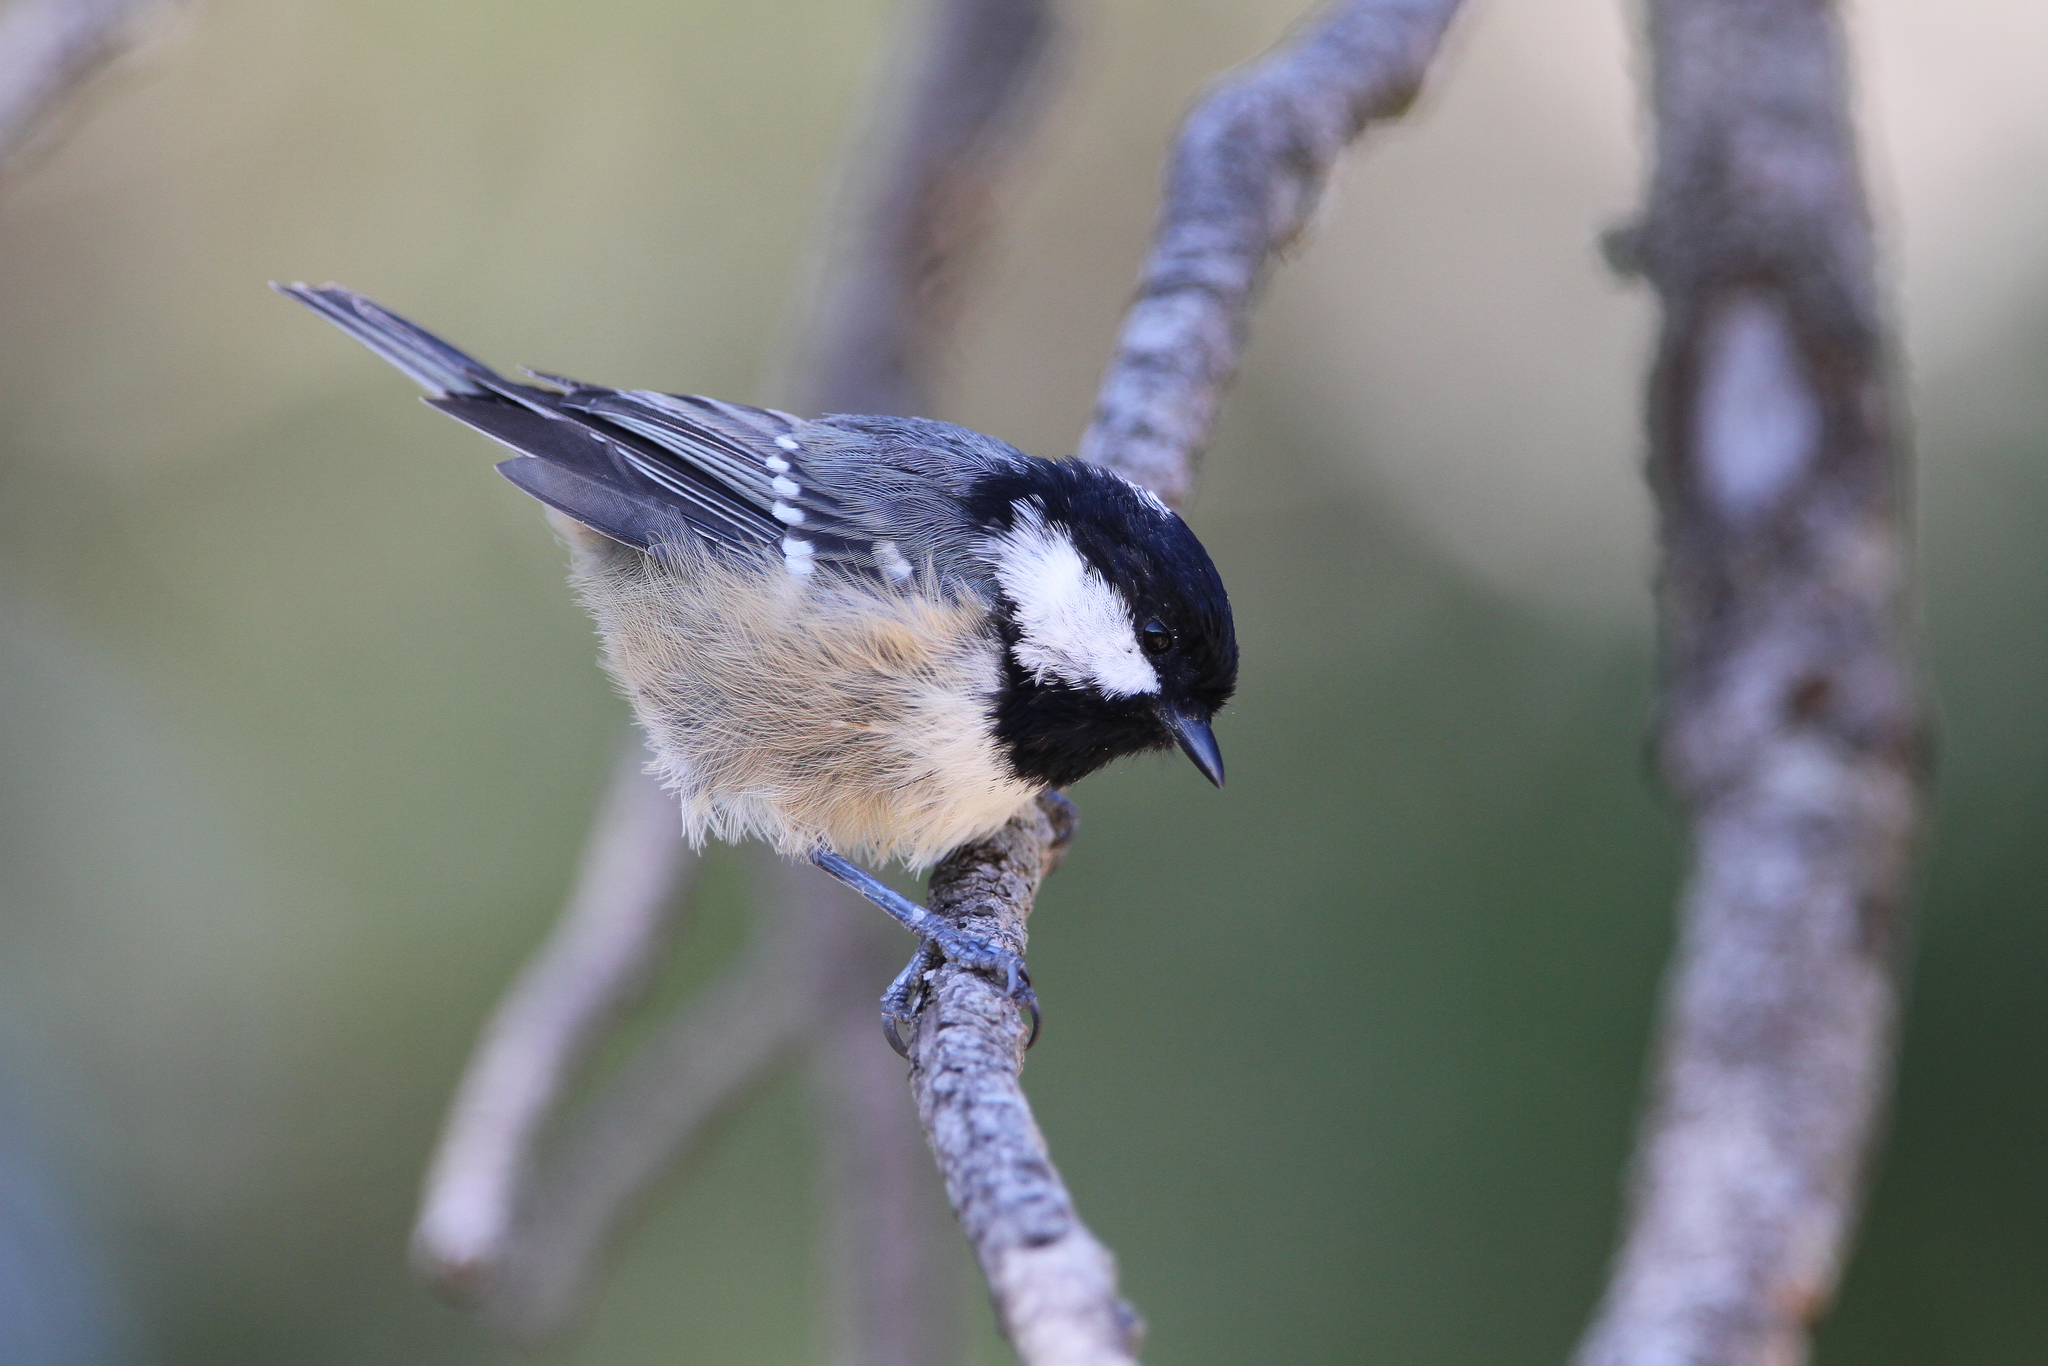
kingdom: Animalia
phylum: Chordata
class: Aves
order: Passeriformes
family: Paridae
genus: Periparus
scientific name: Periparus ater
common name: Coal tit
